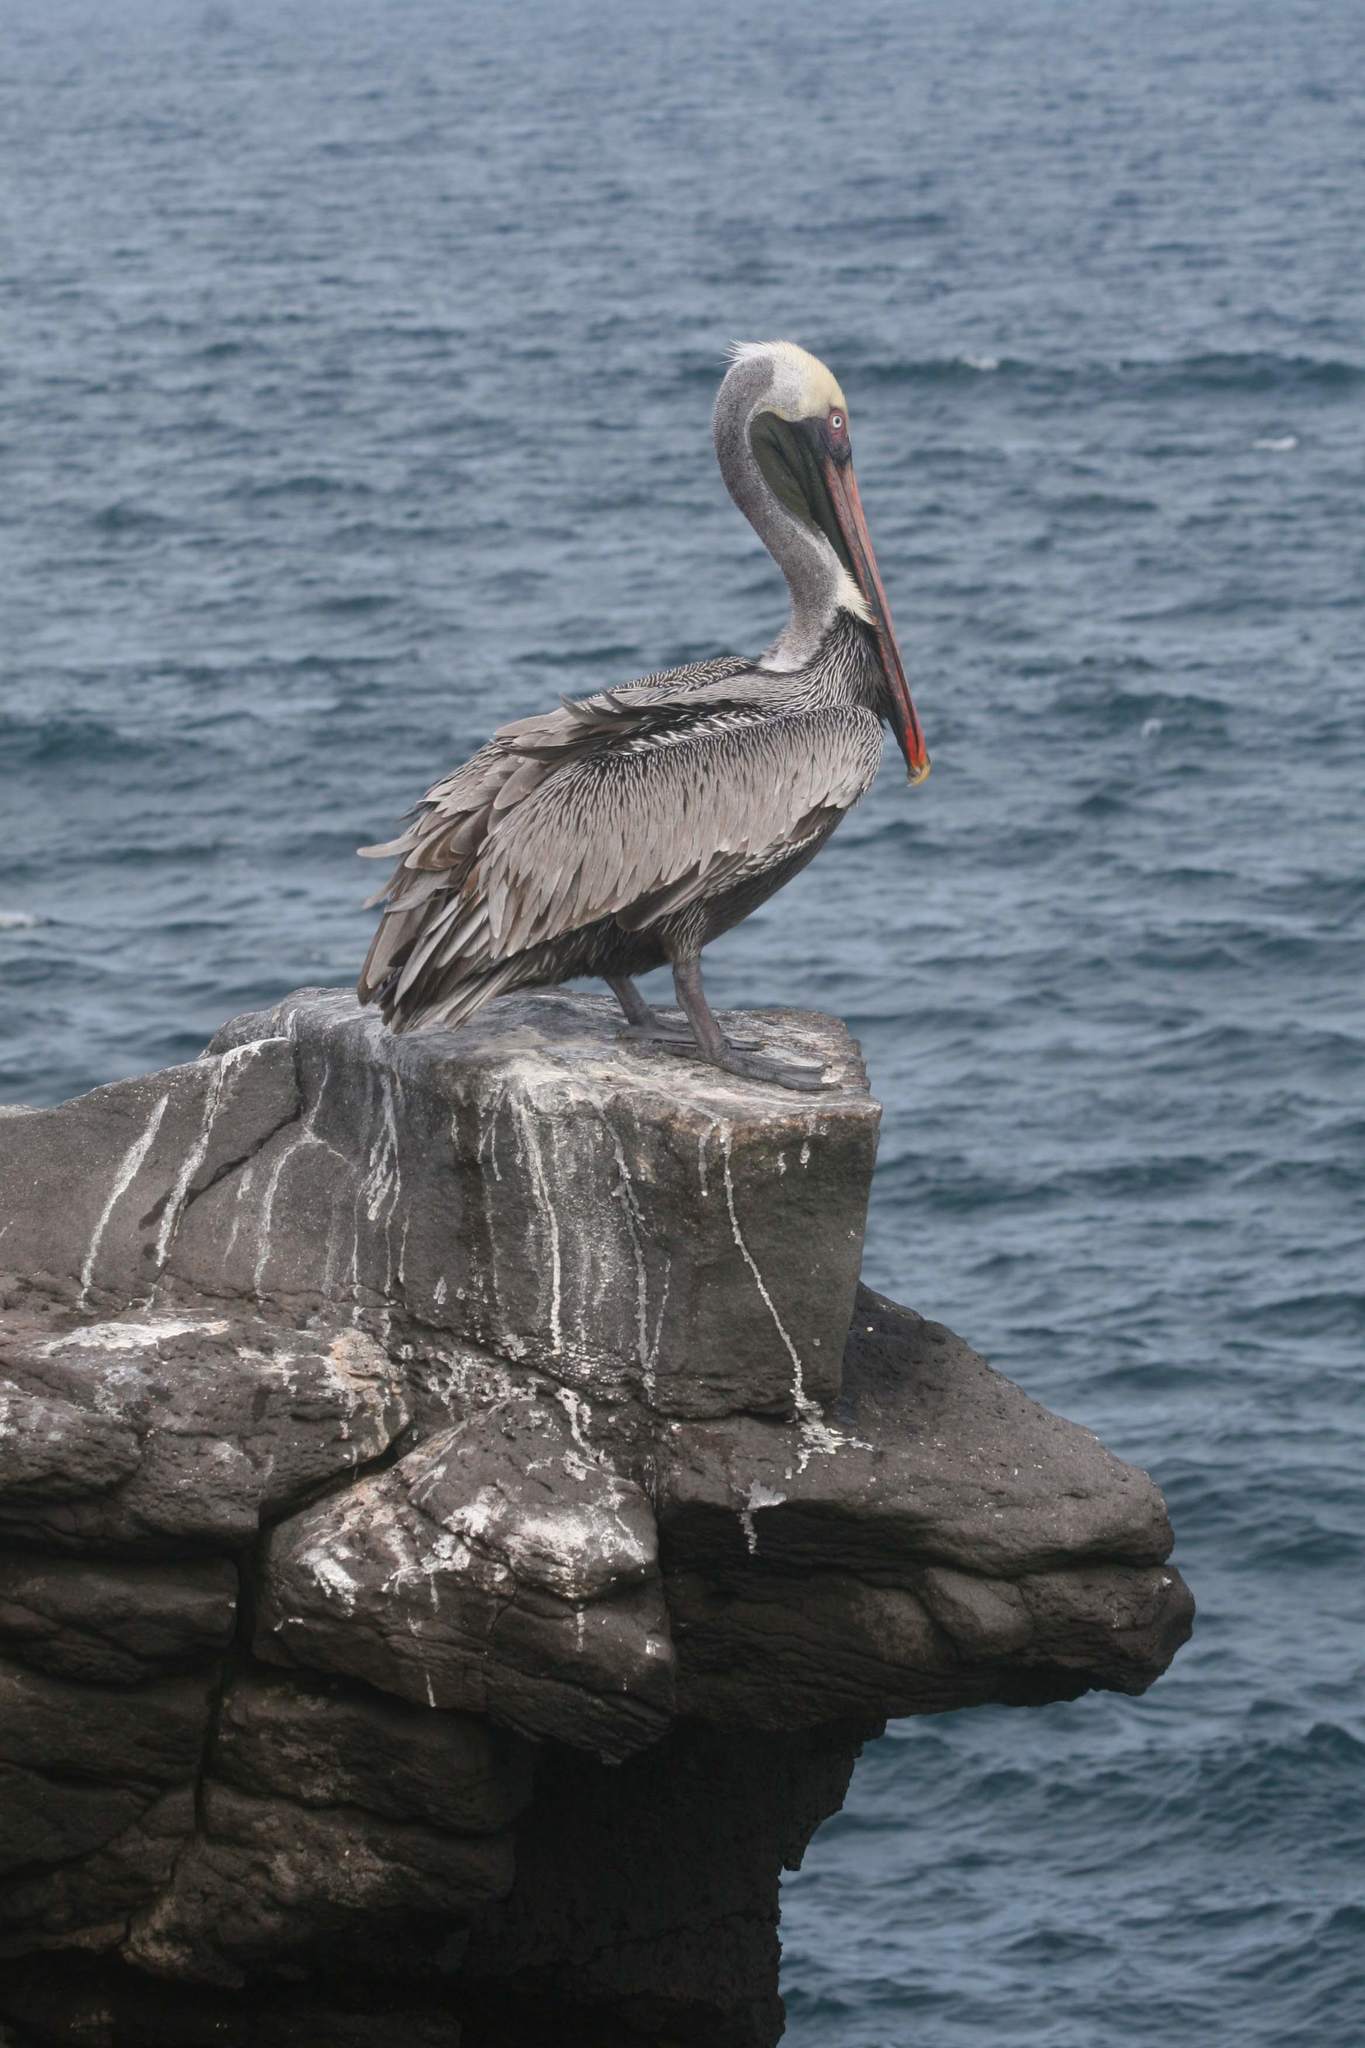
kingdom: Animalia
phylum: Chordata
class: Aves
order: Pelecaniformes
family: Pelecanidae
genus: Pelecanus
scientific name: Pelecanus occidentalis
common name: Brown pelican
